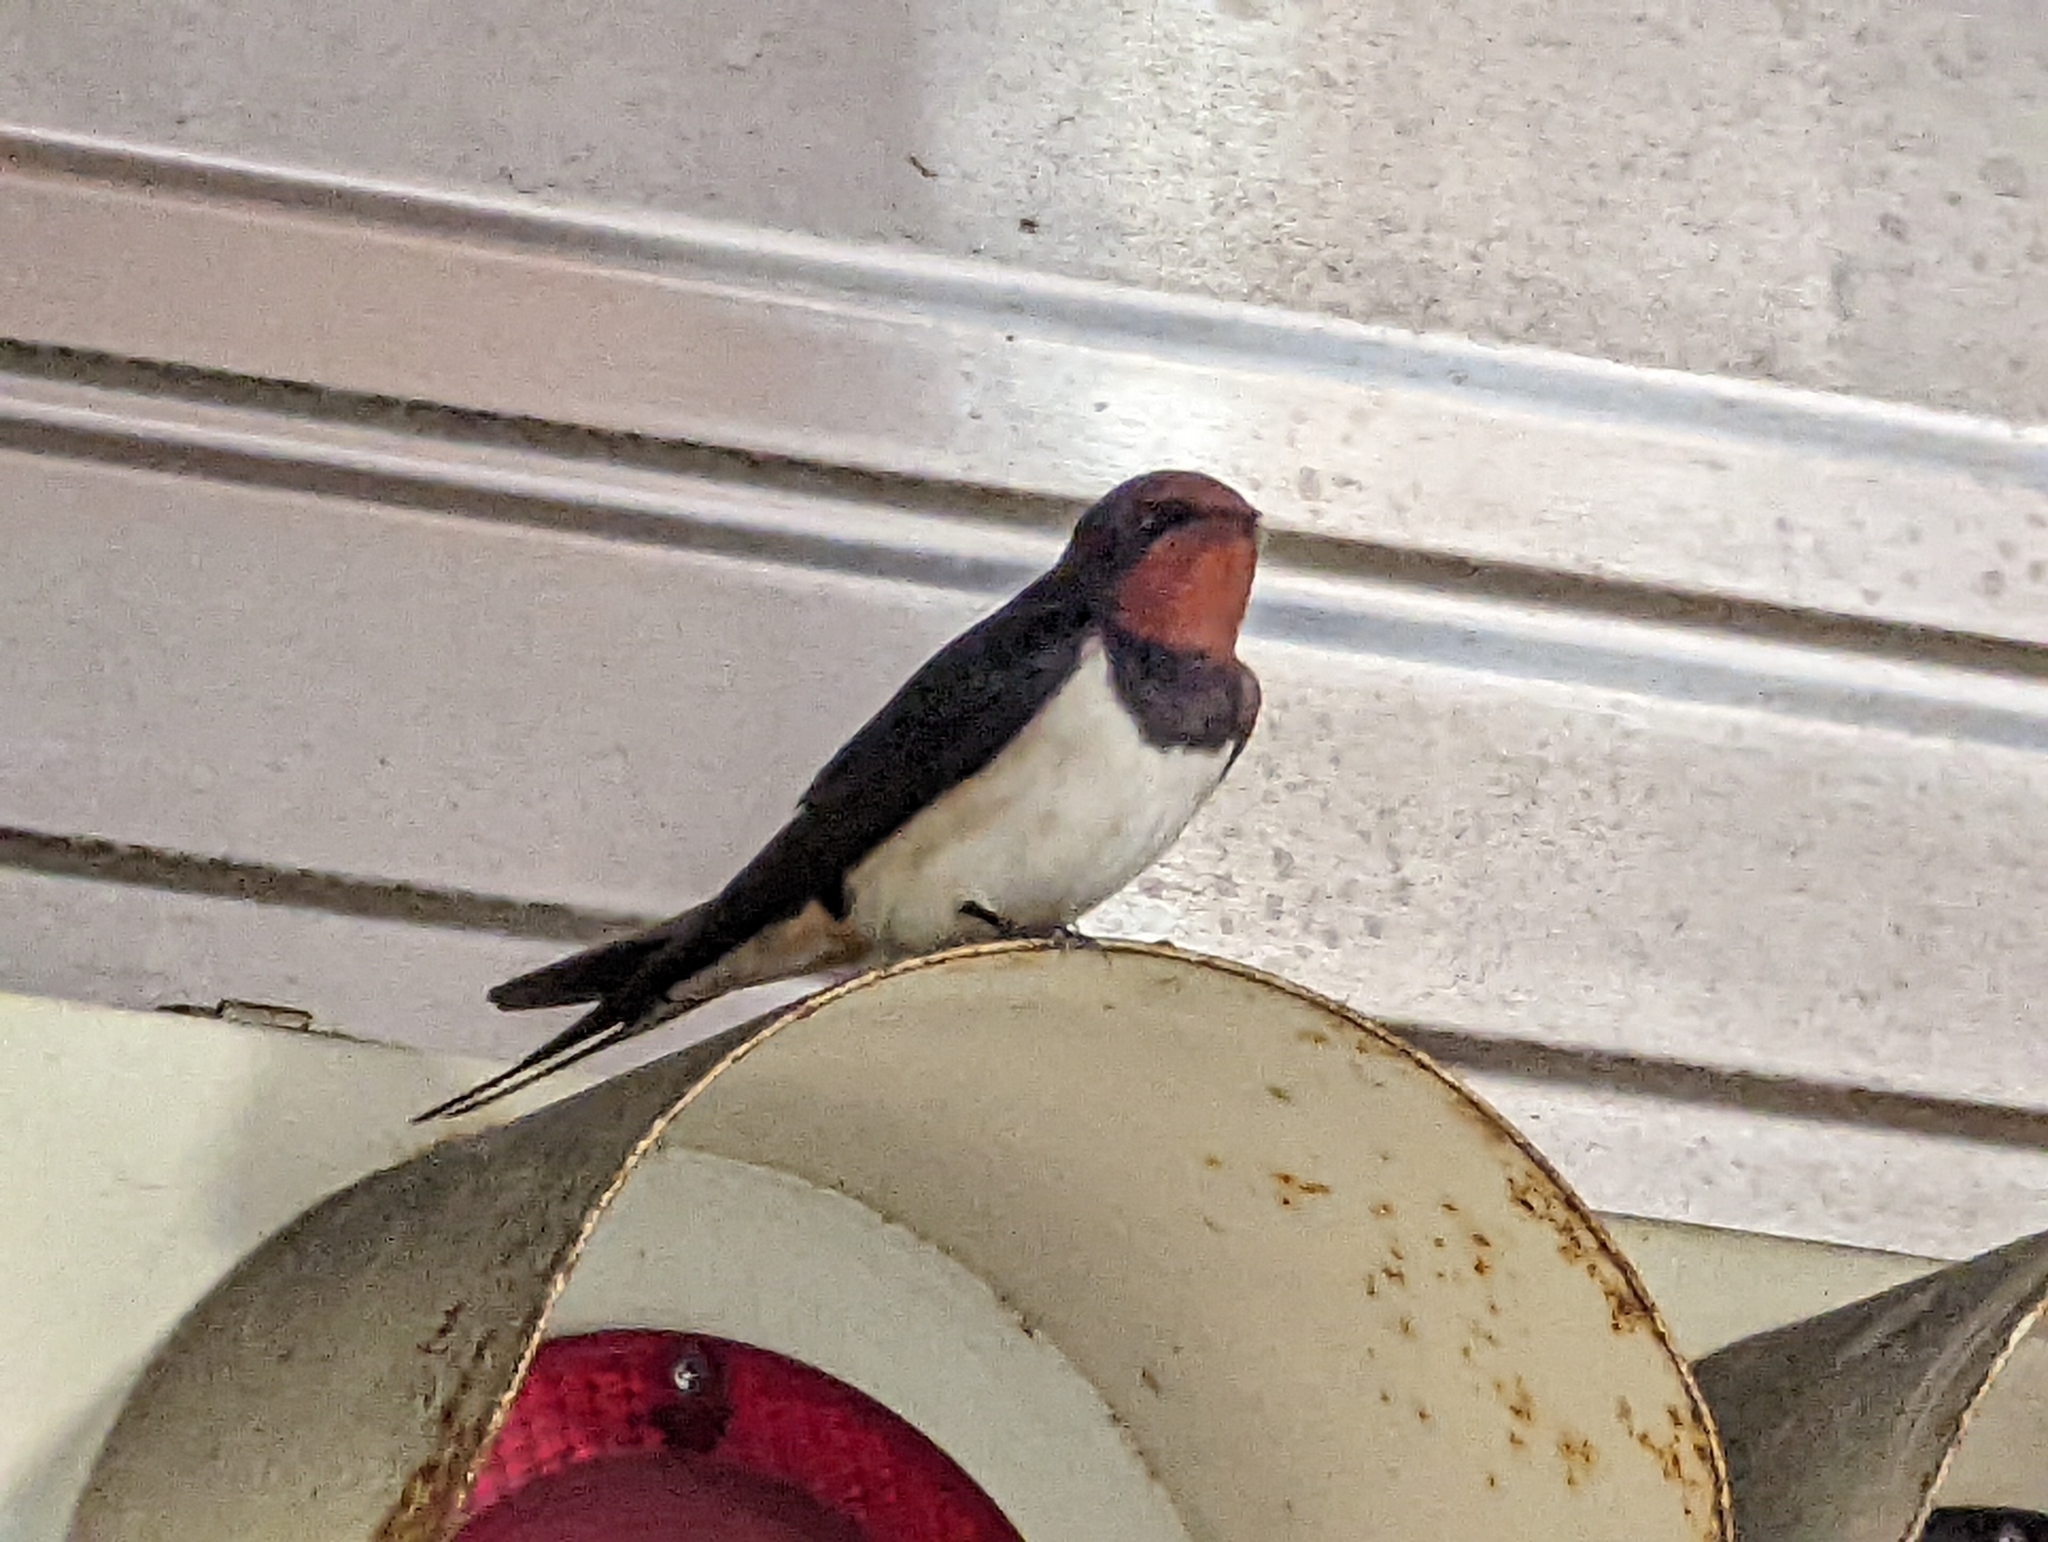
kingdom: Animalia
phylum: Chordata
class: Aves
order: Passeriformes
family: Hirundinidae
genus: Hirundo
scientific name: Hirundo rustica
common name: Barn swallow
